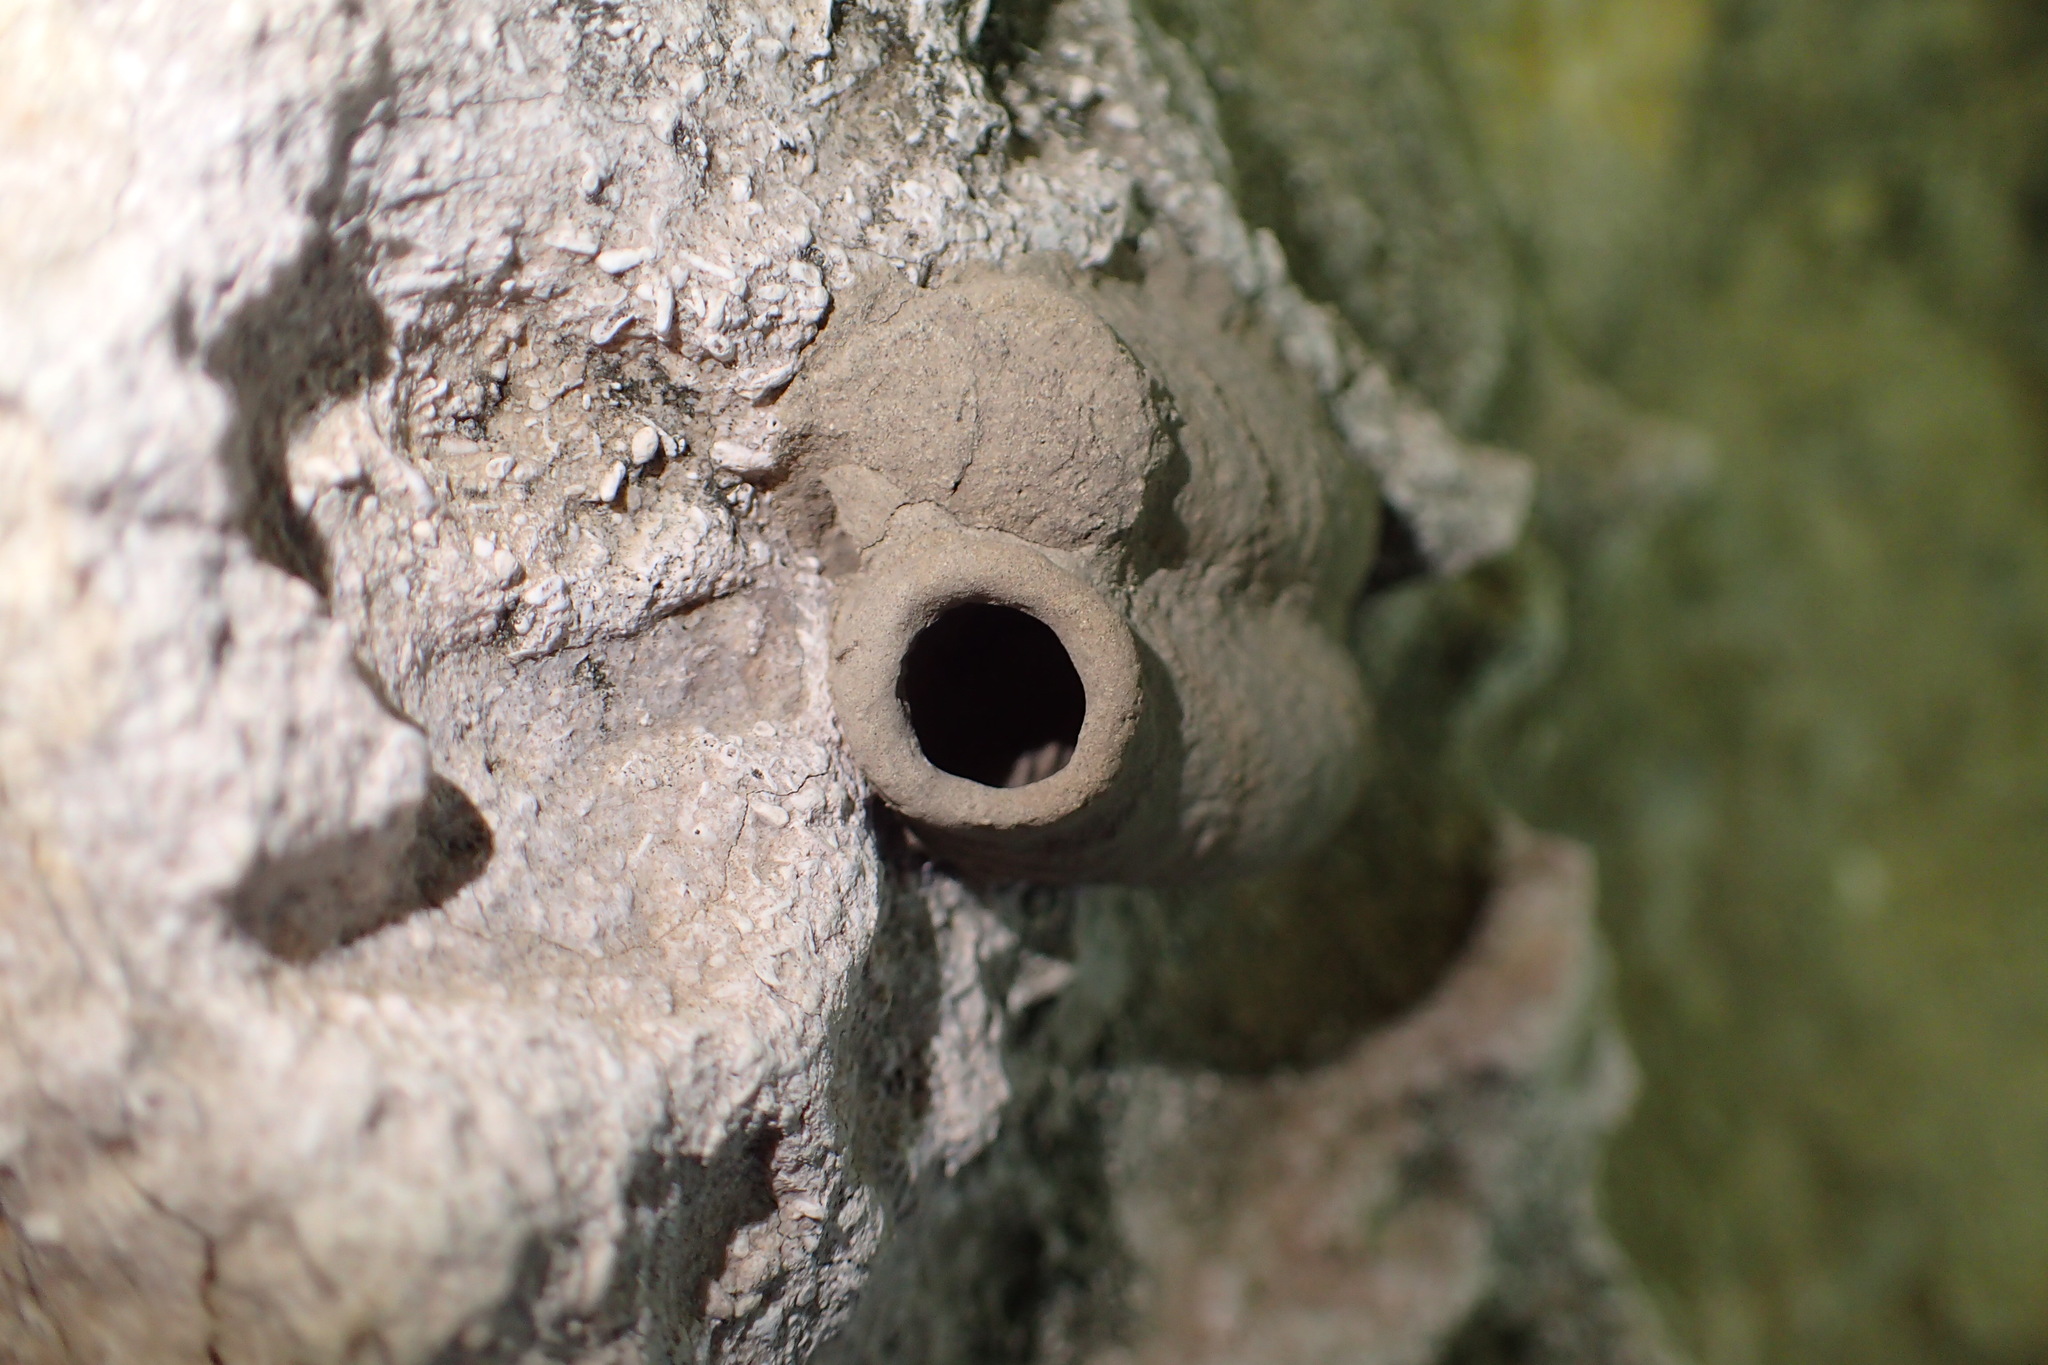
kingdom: Animalia
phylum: Arthropoda
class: Insecta
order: Hymenoptera
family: Sphecidae
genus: Sceliphron
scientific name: Sceliphron
